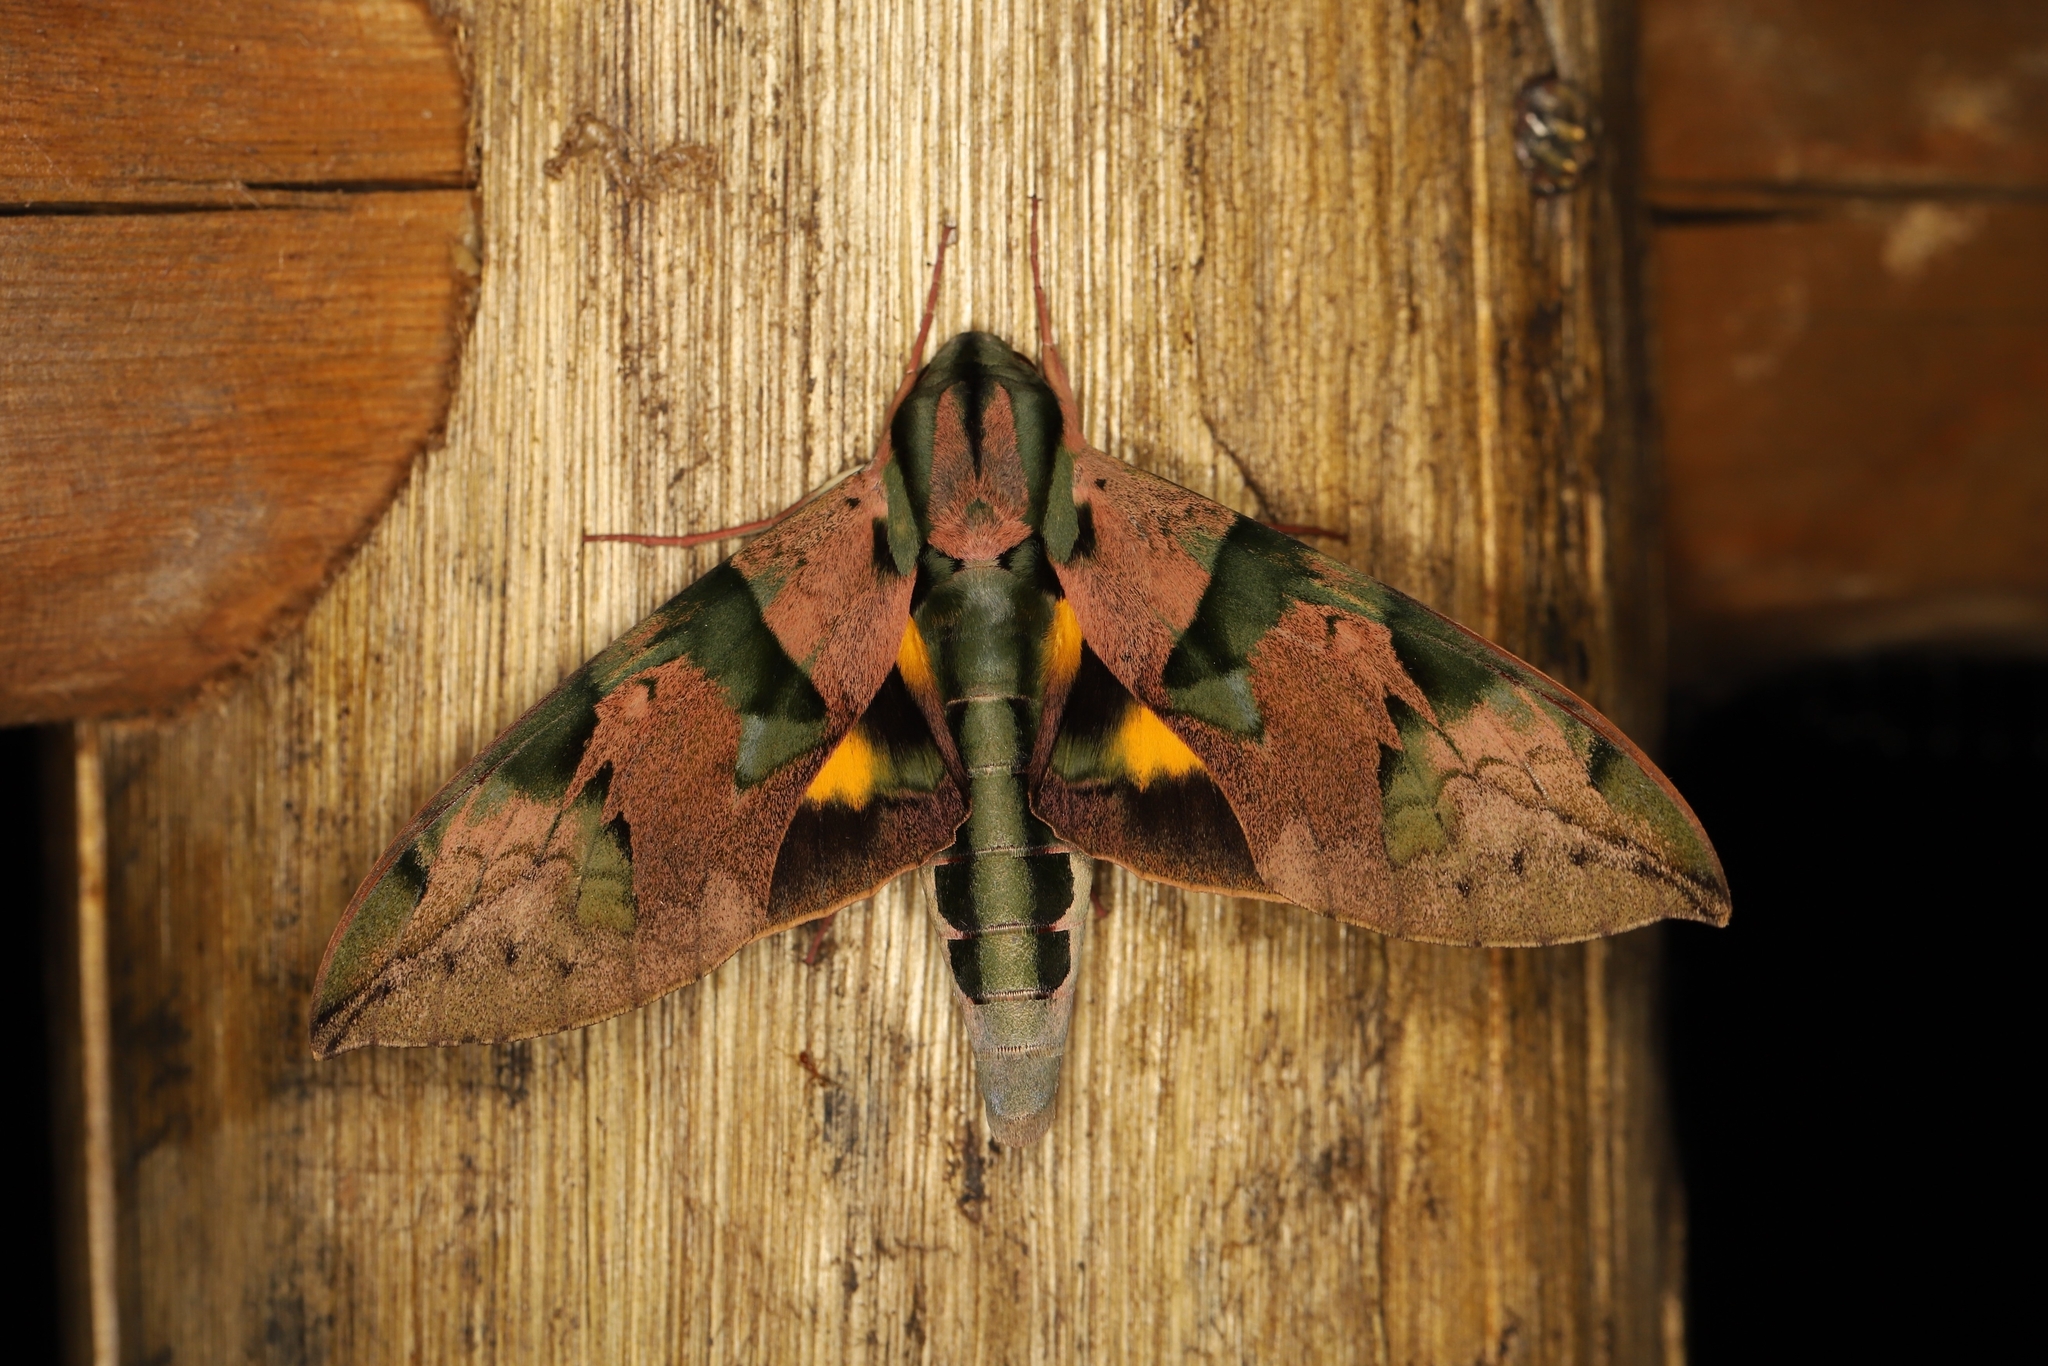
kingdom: Animalia
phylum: Arthropoda
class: Insecta
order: Lepidoptera
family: Sphingidae
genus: Eumorpha
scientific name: Eumorpha capronnieri
